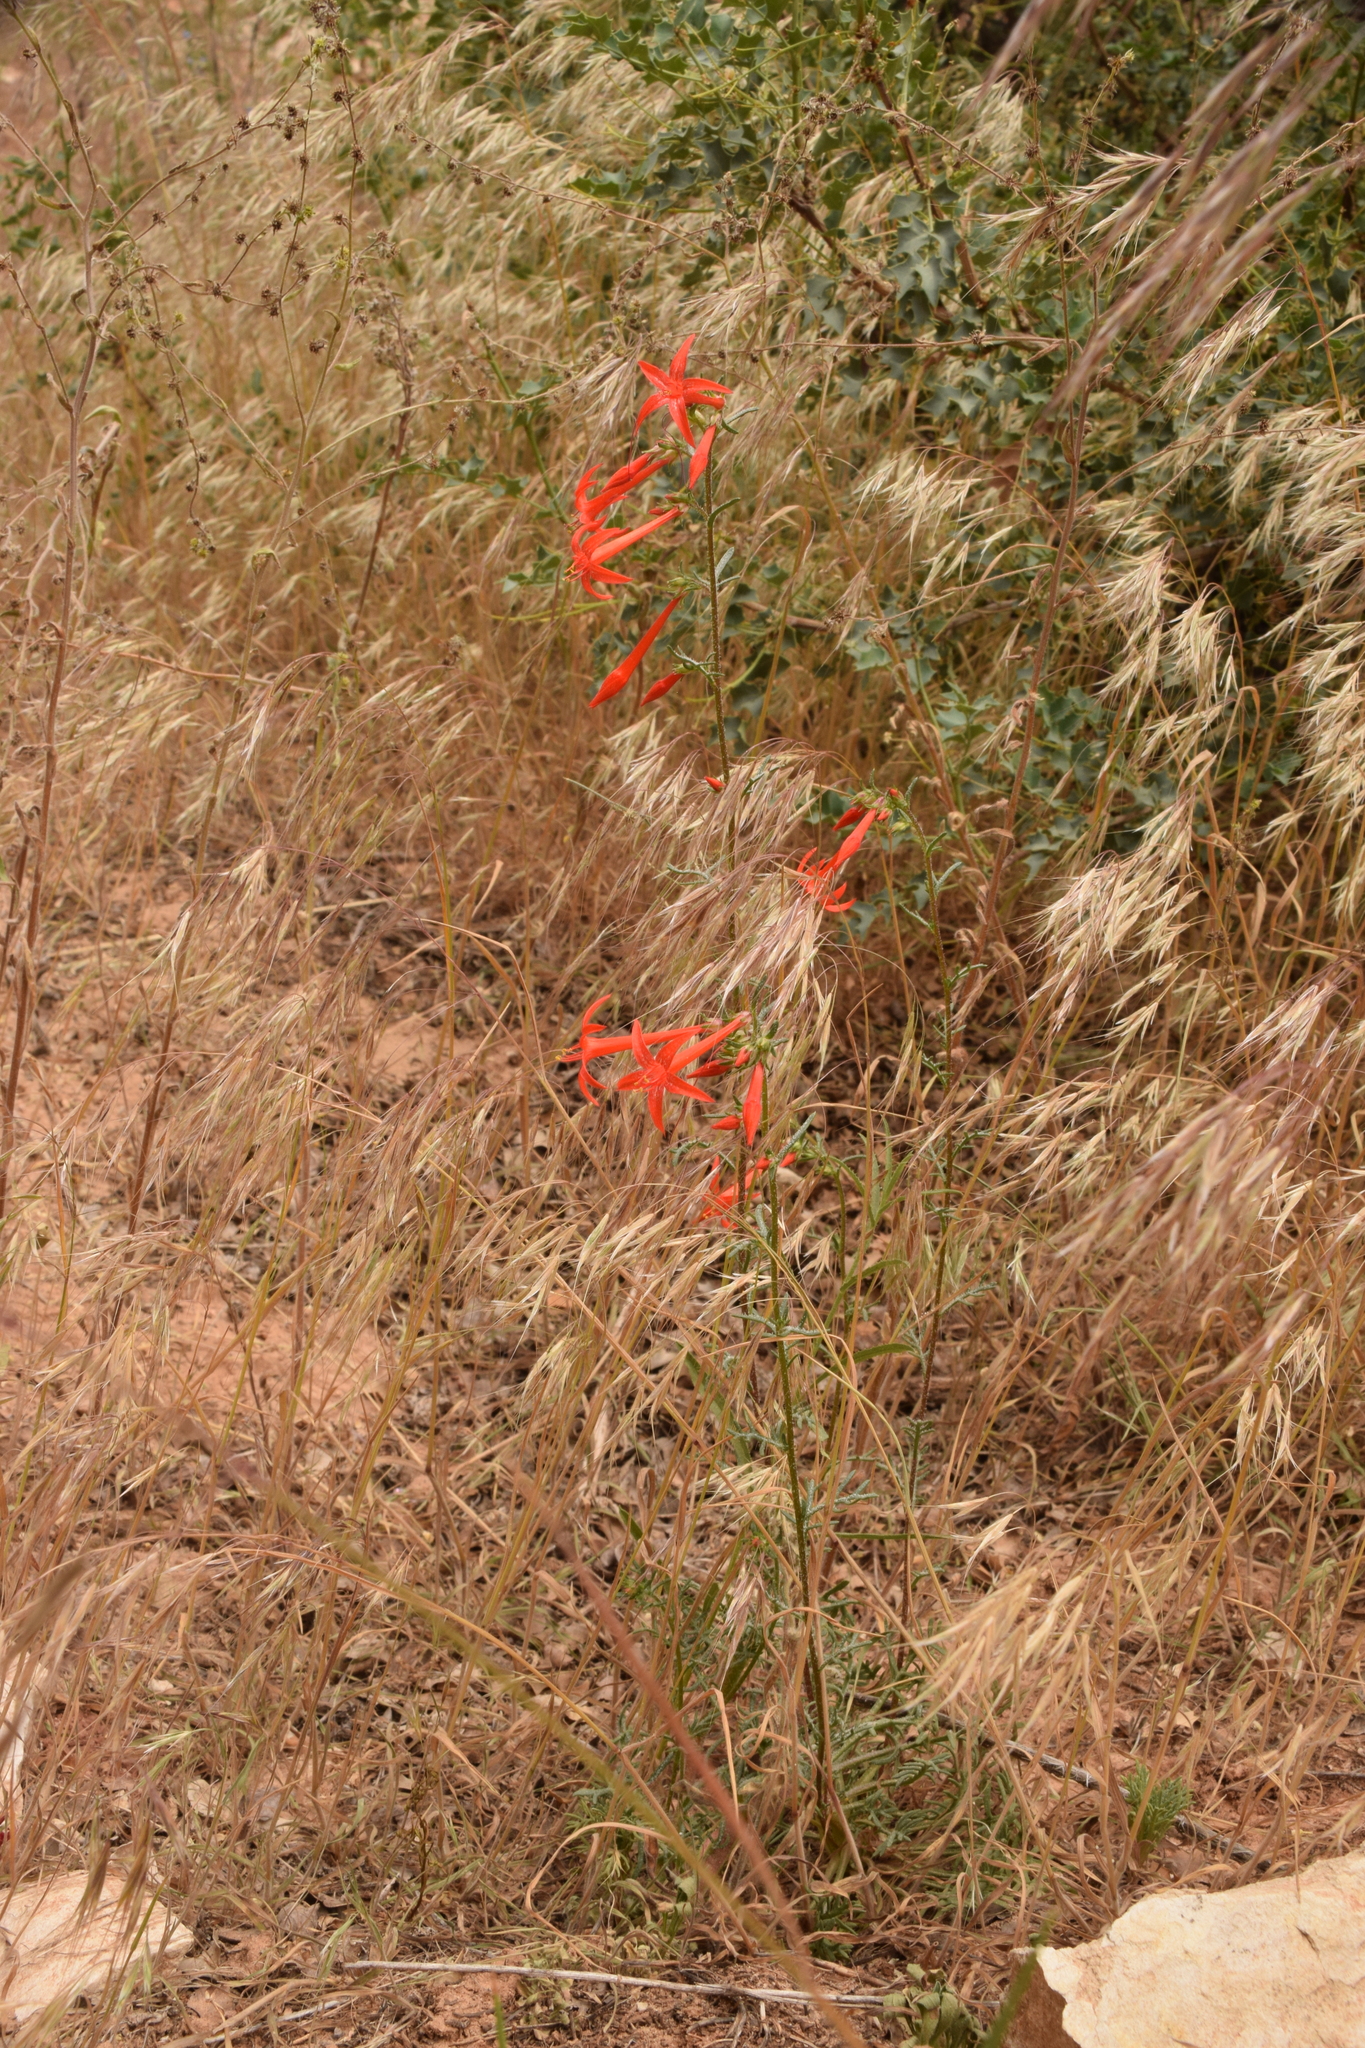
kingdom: Plantae
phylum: Tracheophyta
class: Magnoliopsida
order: Ericales
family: Polemoniaceae
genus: Ipomopsis
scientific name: Ipomopsis aggregata
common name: Scarlet gilia
